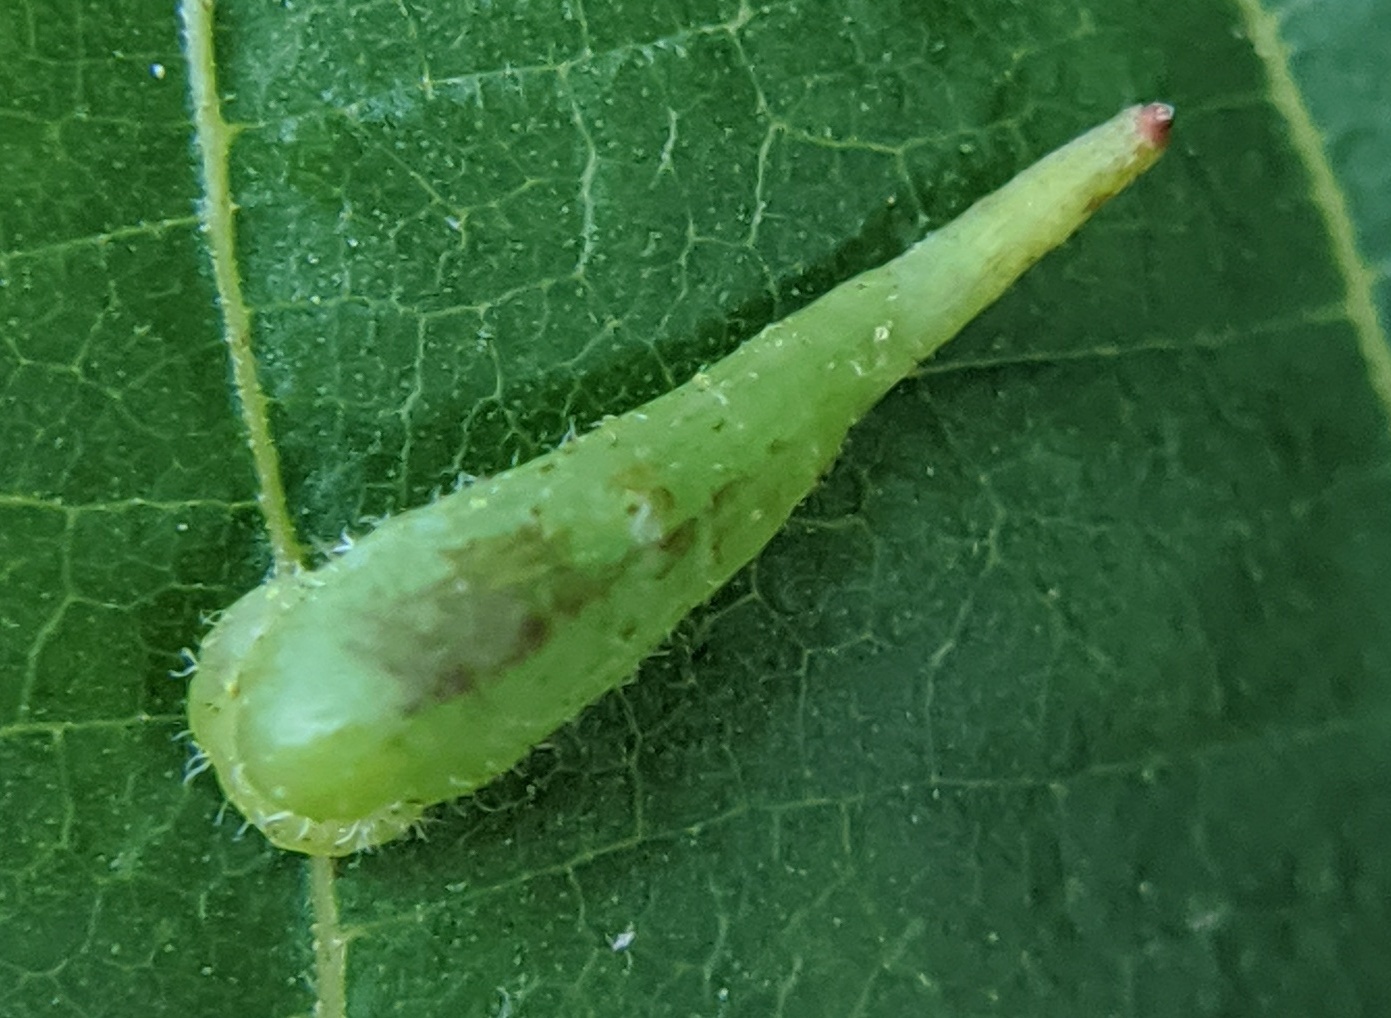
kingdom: Animalia
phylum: Arthropoda
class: Insecta
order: Diptera
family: Cecidomyiidae
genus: Caryomyia
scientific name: Caryomyia spinulosa
